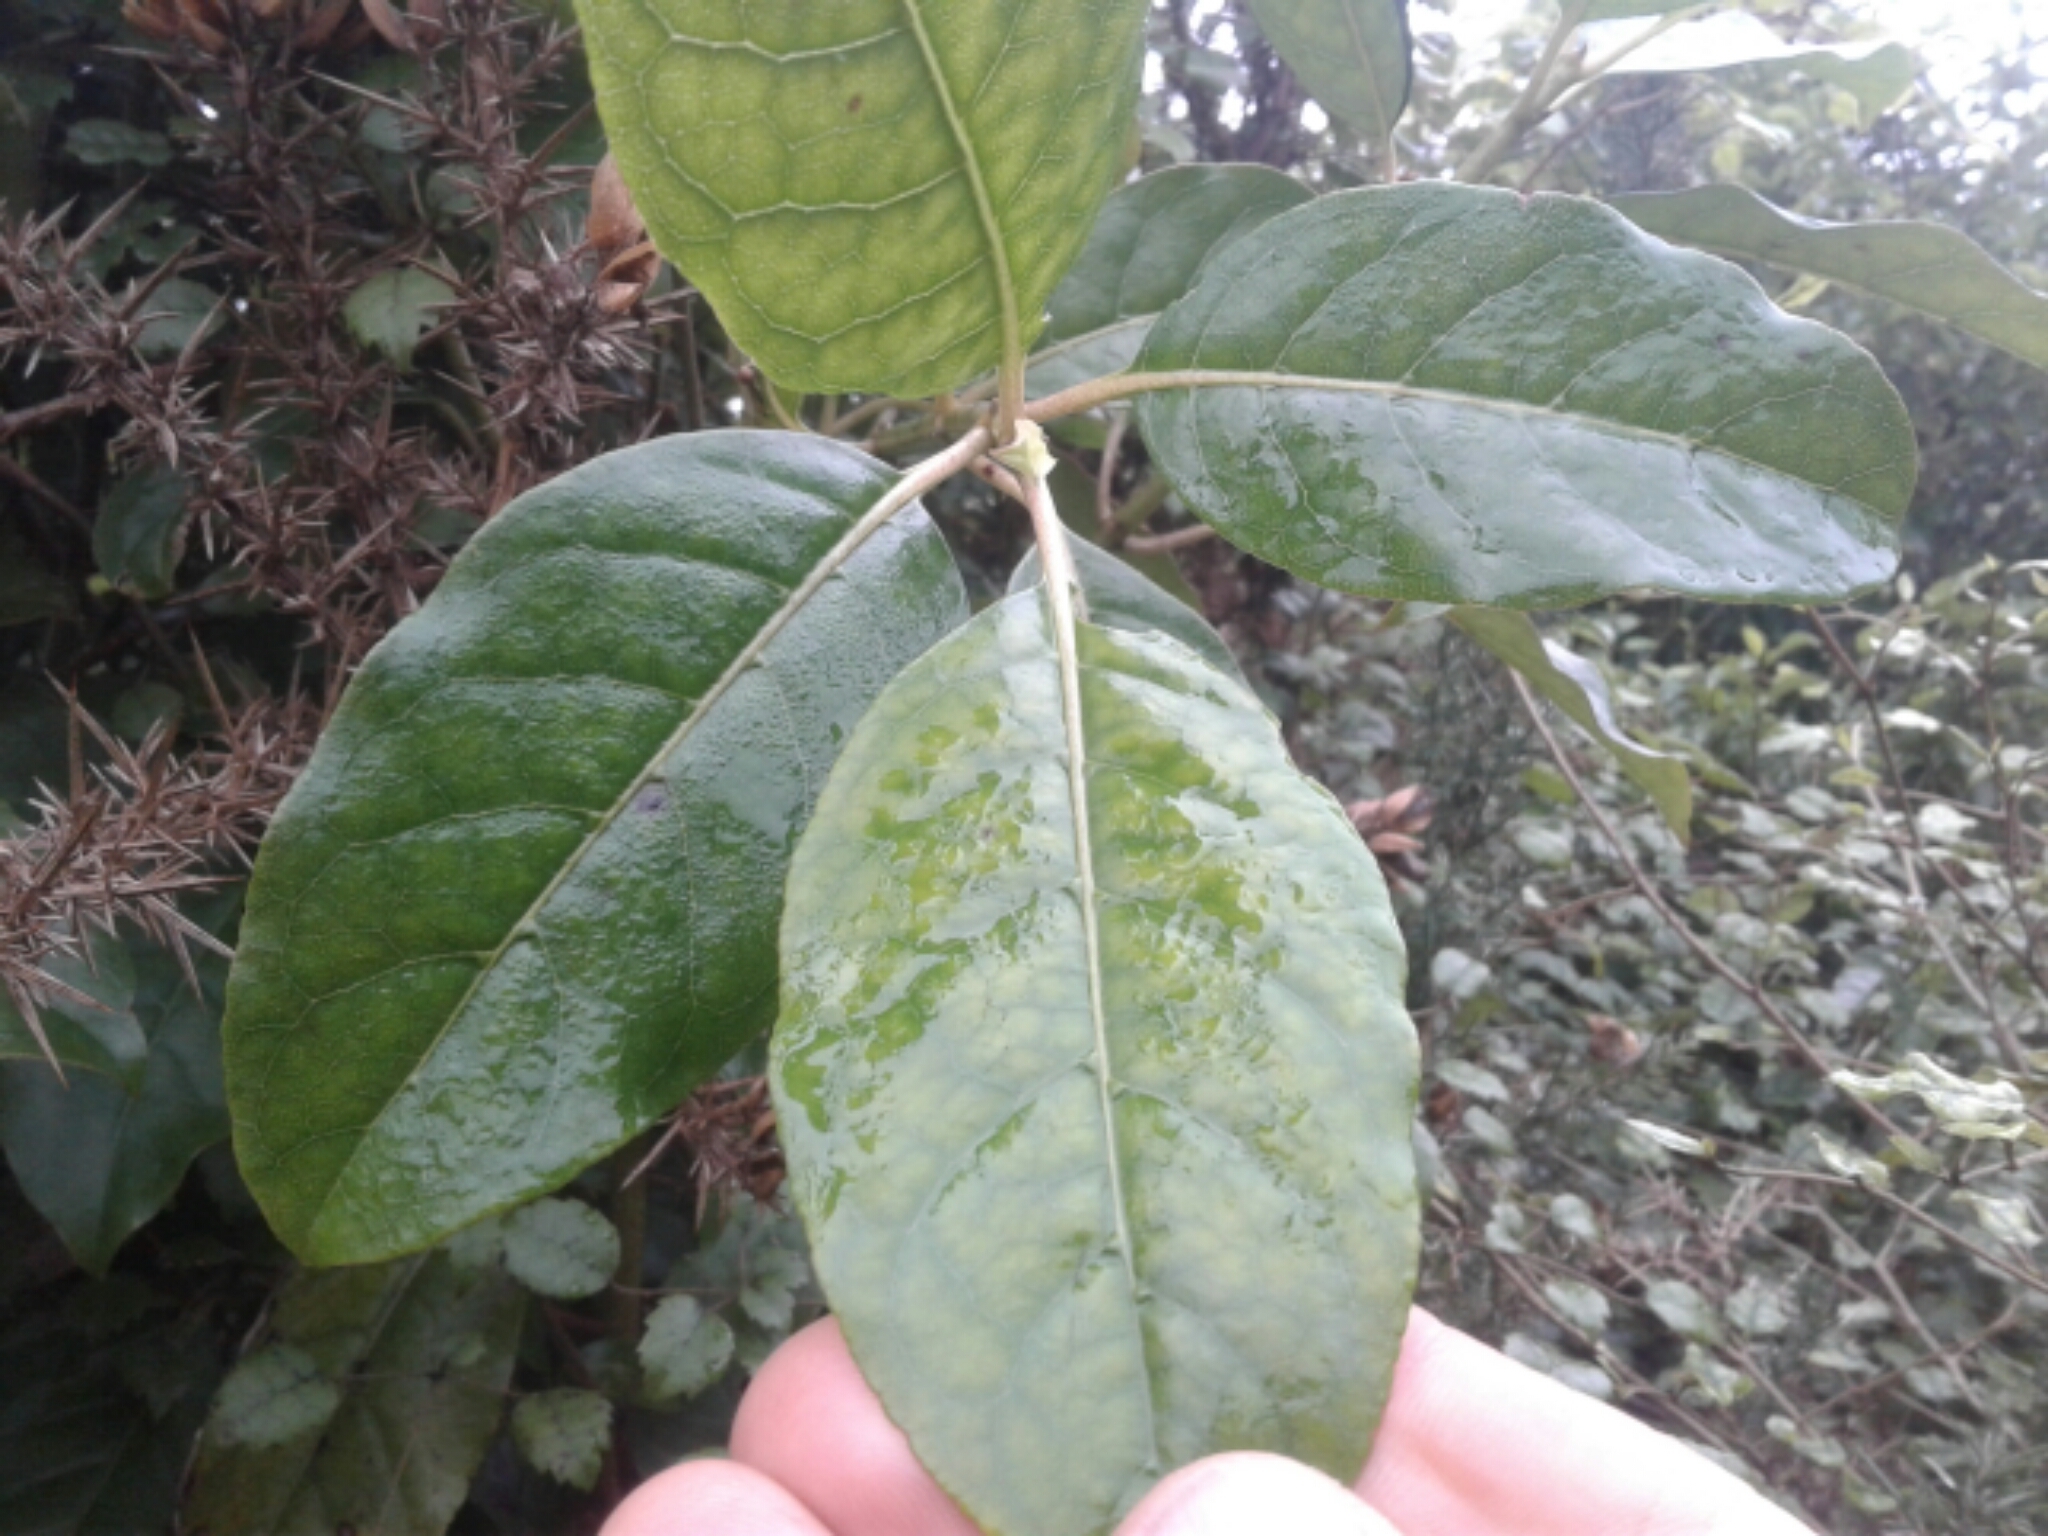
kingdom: Plantae
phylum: Tracheophyta
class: Magnoliopsida
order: Gentianales
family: Rubiaceae
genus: Coprosma
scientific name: Coprosma autumnalis
